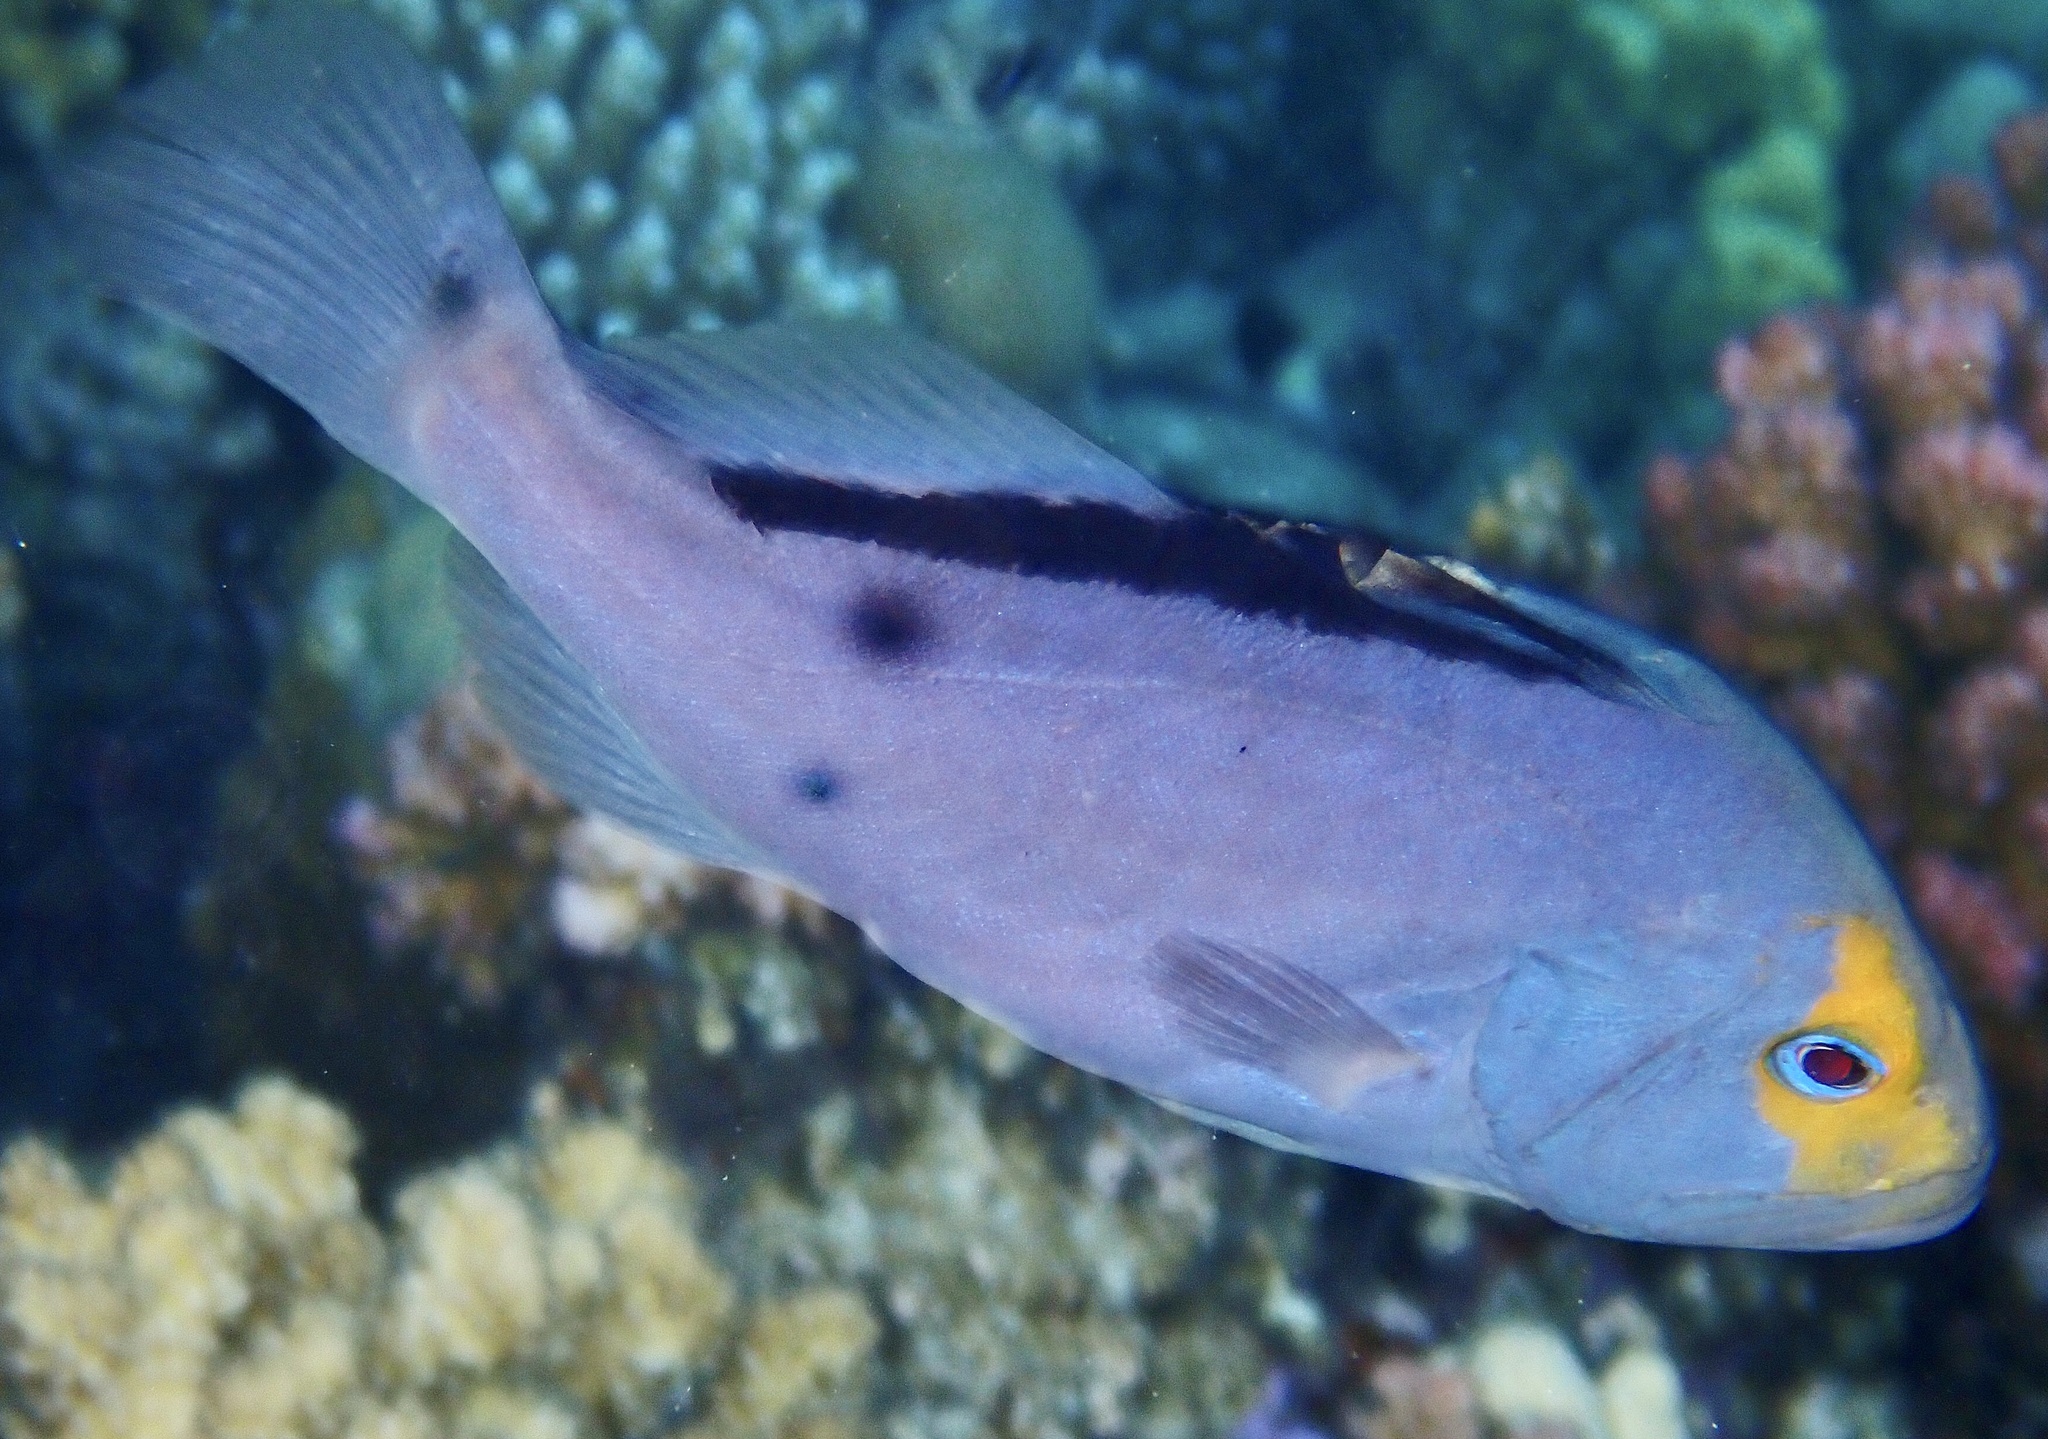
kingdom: Animalia
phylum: Chordata
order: Perciformes
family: Serranidae
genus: Diploprion
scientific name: Diploprion drachi
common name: Yellowface soapfish
